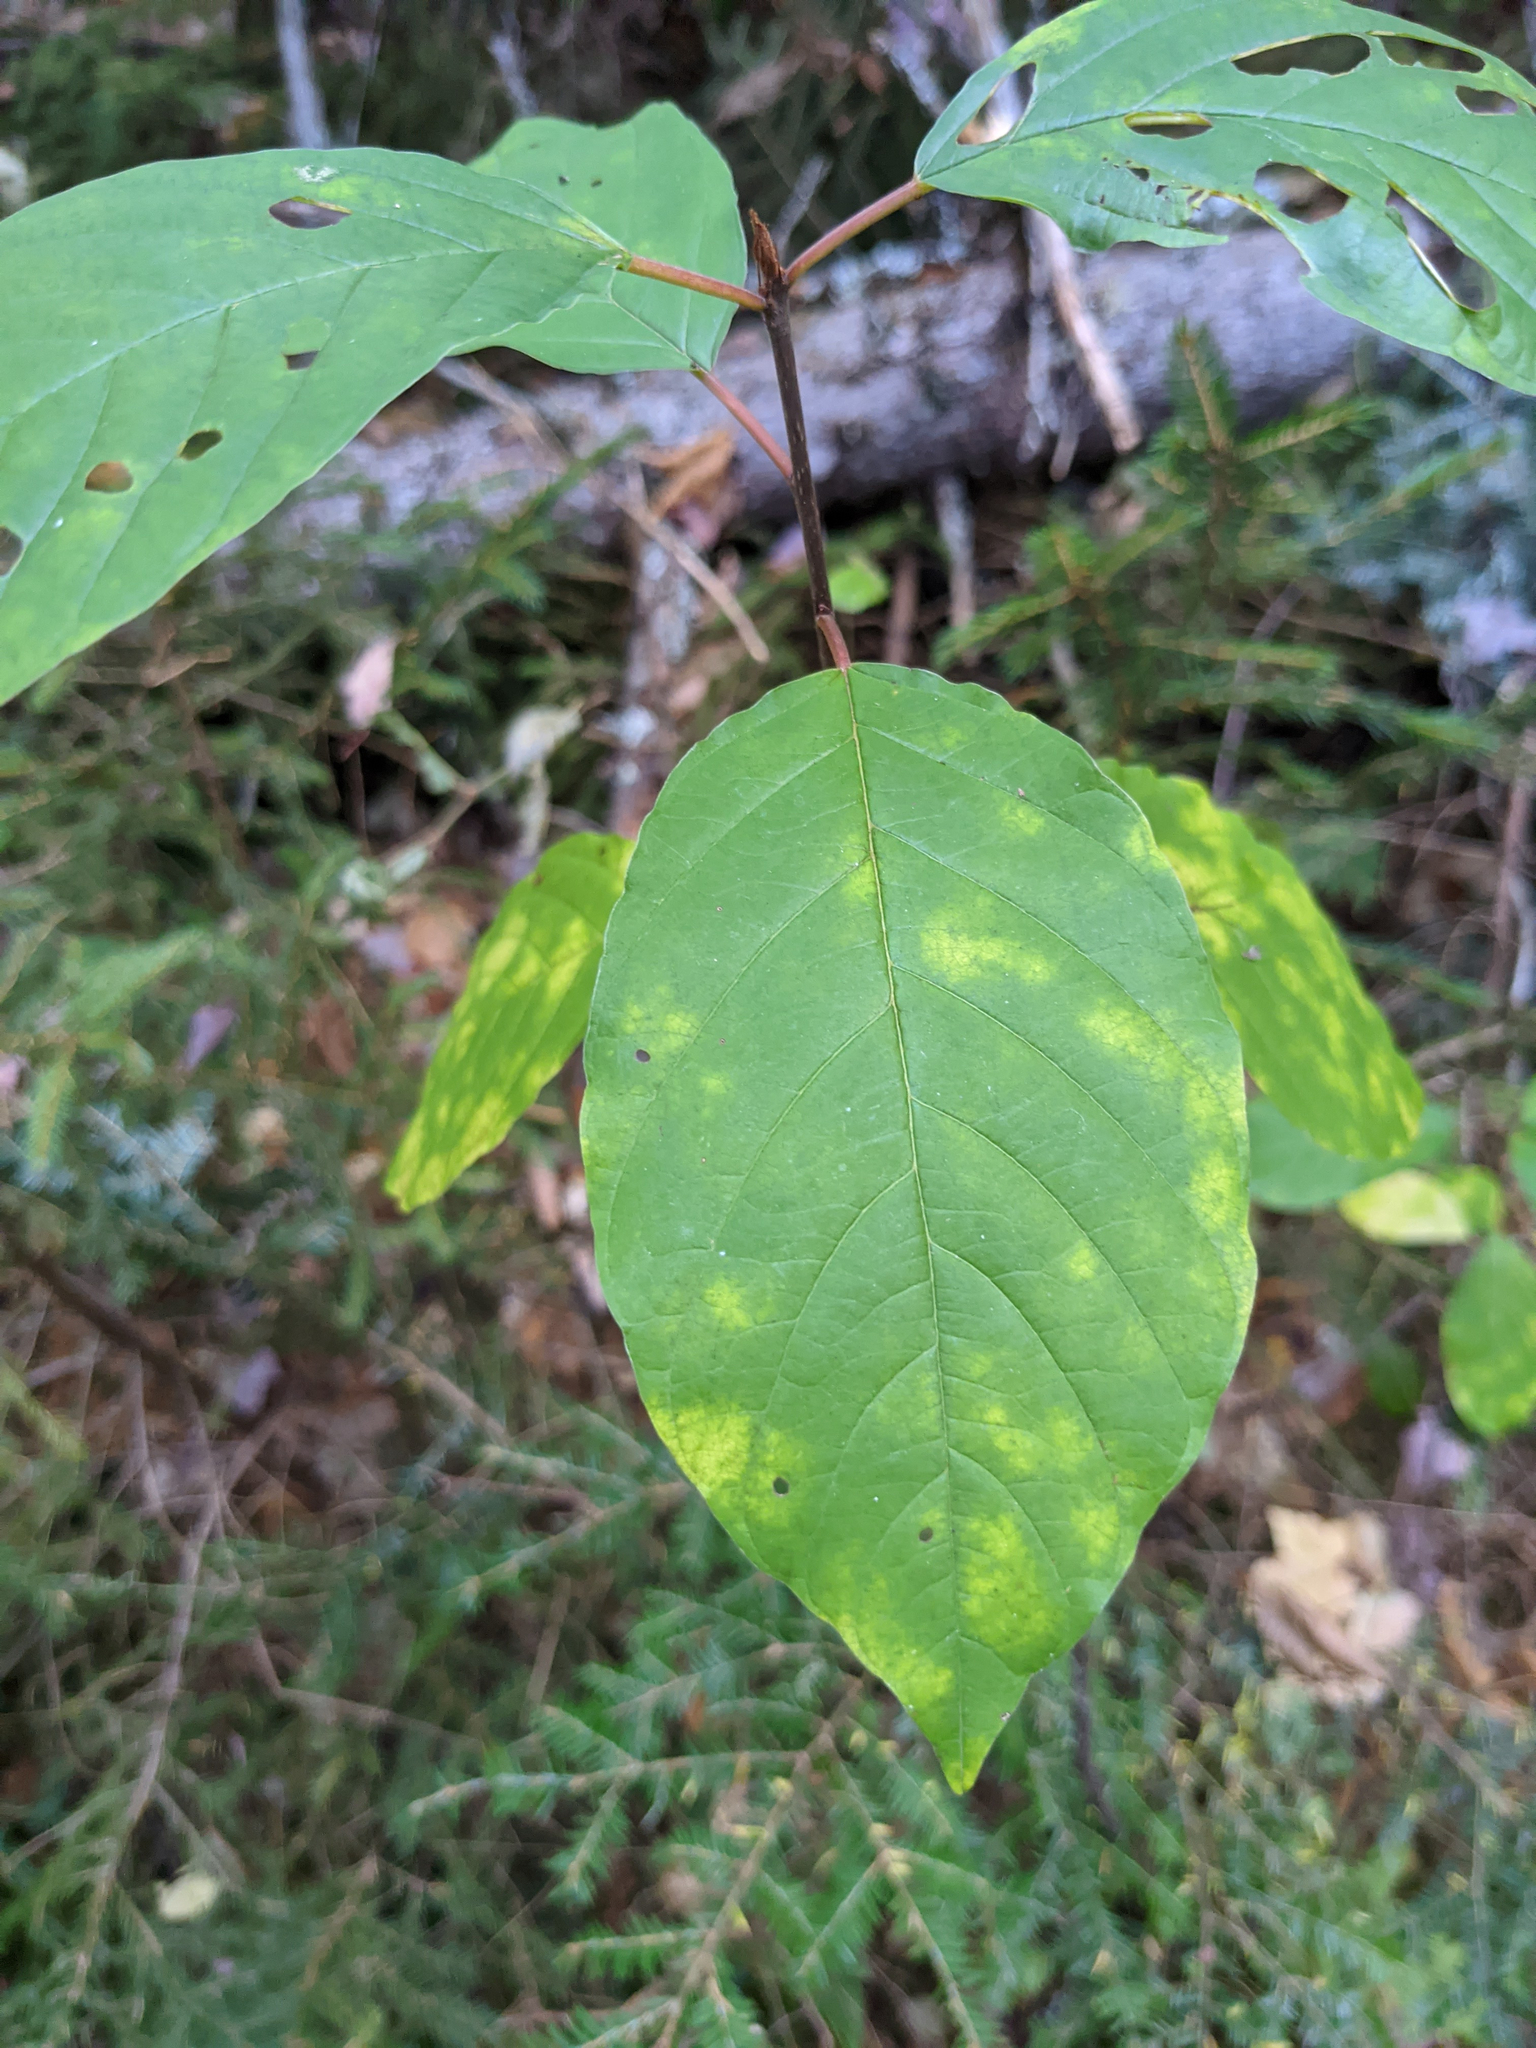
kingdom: Plantae
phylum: Tracheophyta
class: Magnoliopsida
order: Rosales
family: Rhamnaceae
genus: Frangula
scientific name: Frangula alnus
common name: Alder buckthorn
